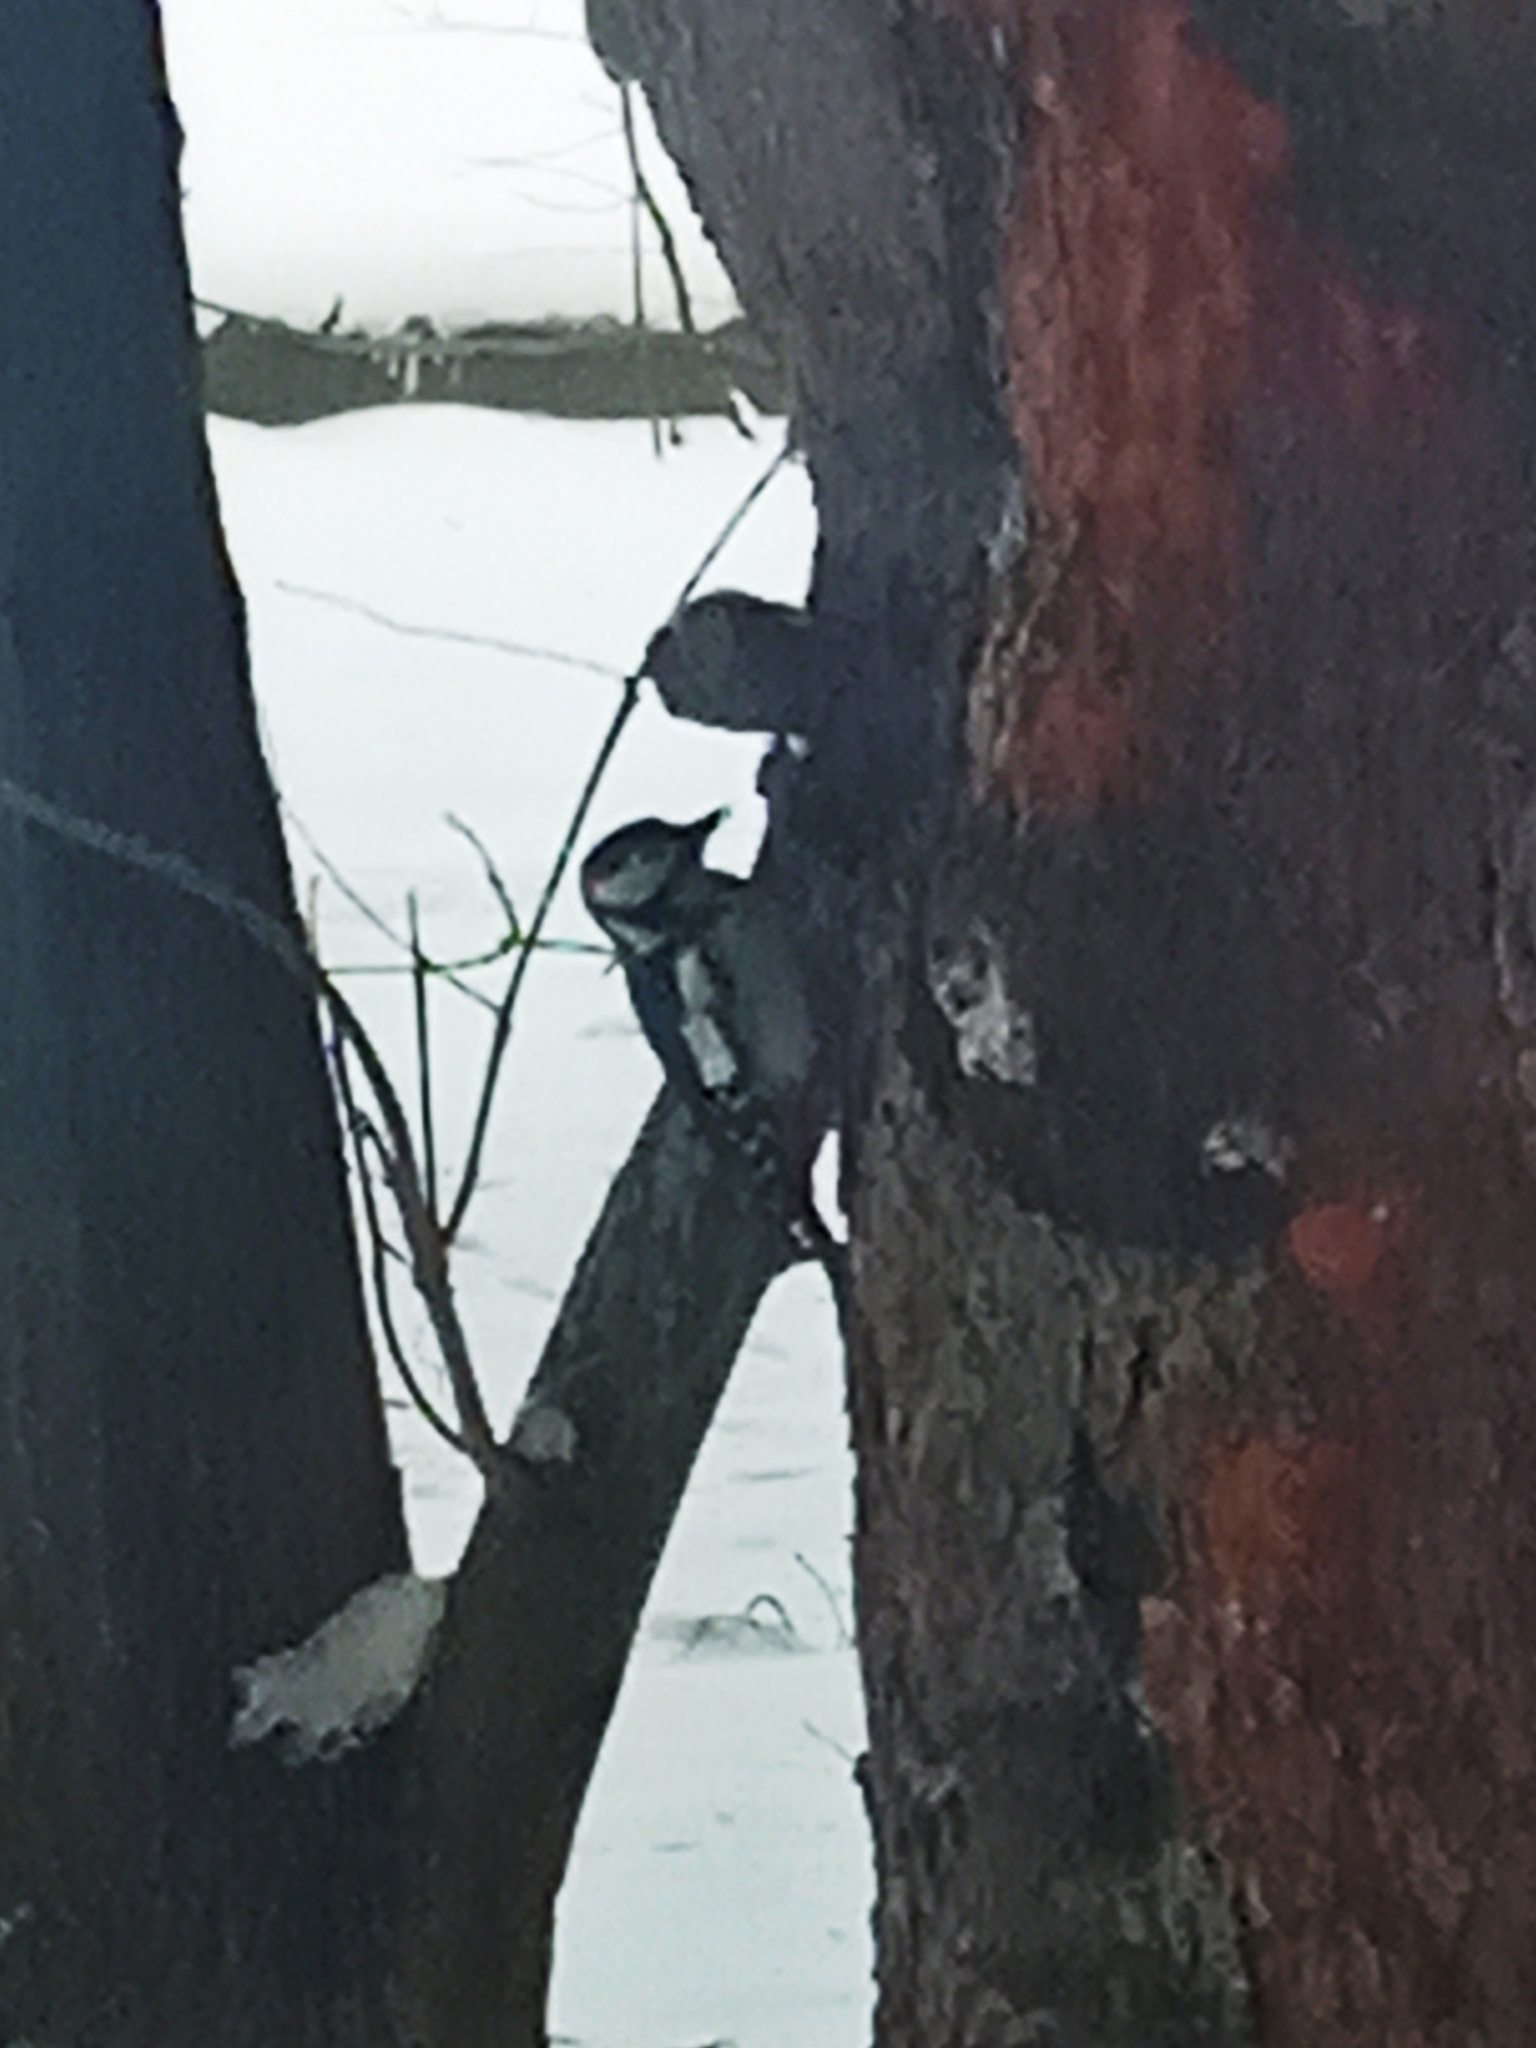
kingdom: Animalia
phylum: Chordata
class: Aves
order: Piciformes
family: Picidae
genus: Dendrocopos
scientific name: Dendrocopos major
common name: Great spotted woodpecker
